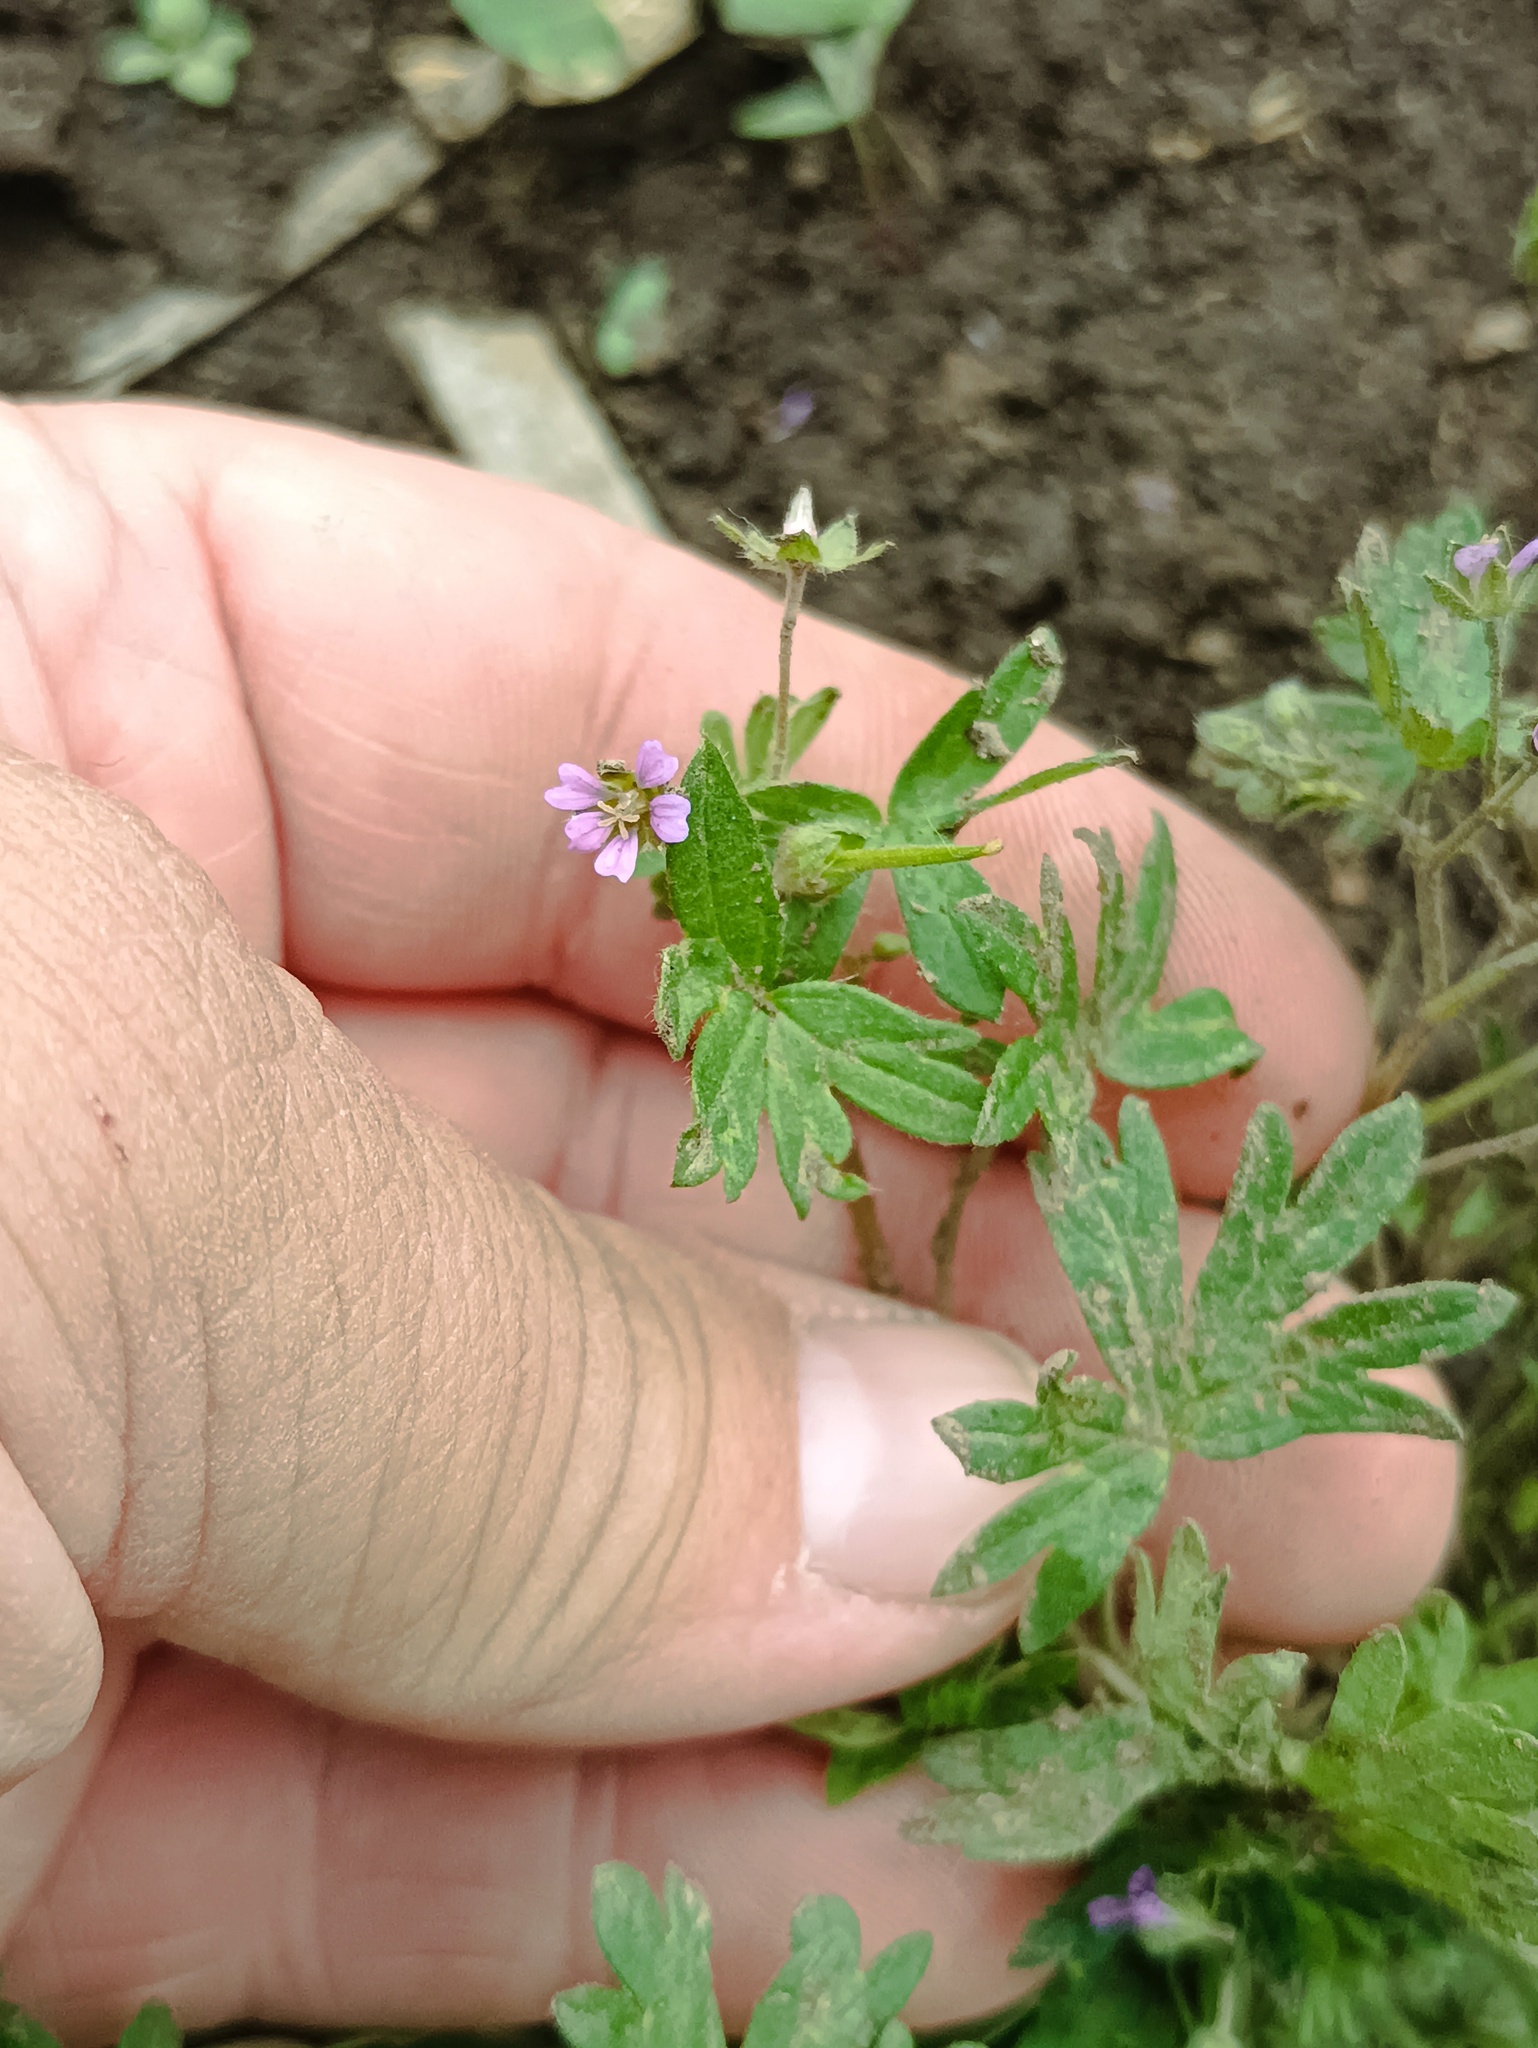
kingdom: Plantae
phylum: Tracheophyta
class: Magnoliopsida
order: Geraniales
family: Geraniaceae
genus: Geranium
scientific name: Geranium pusillum
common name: Small geranium
